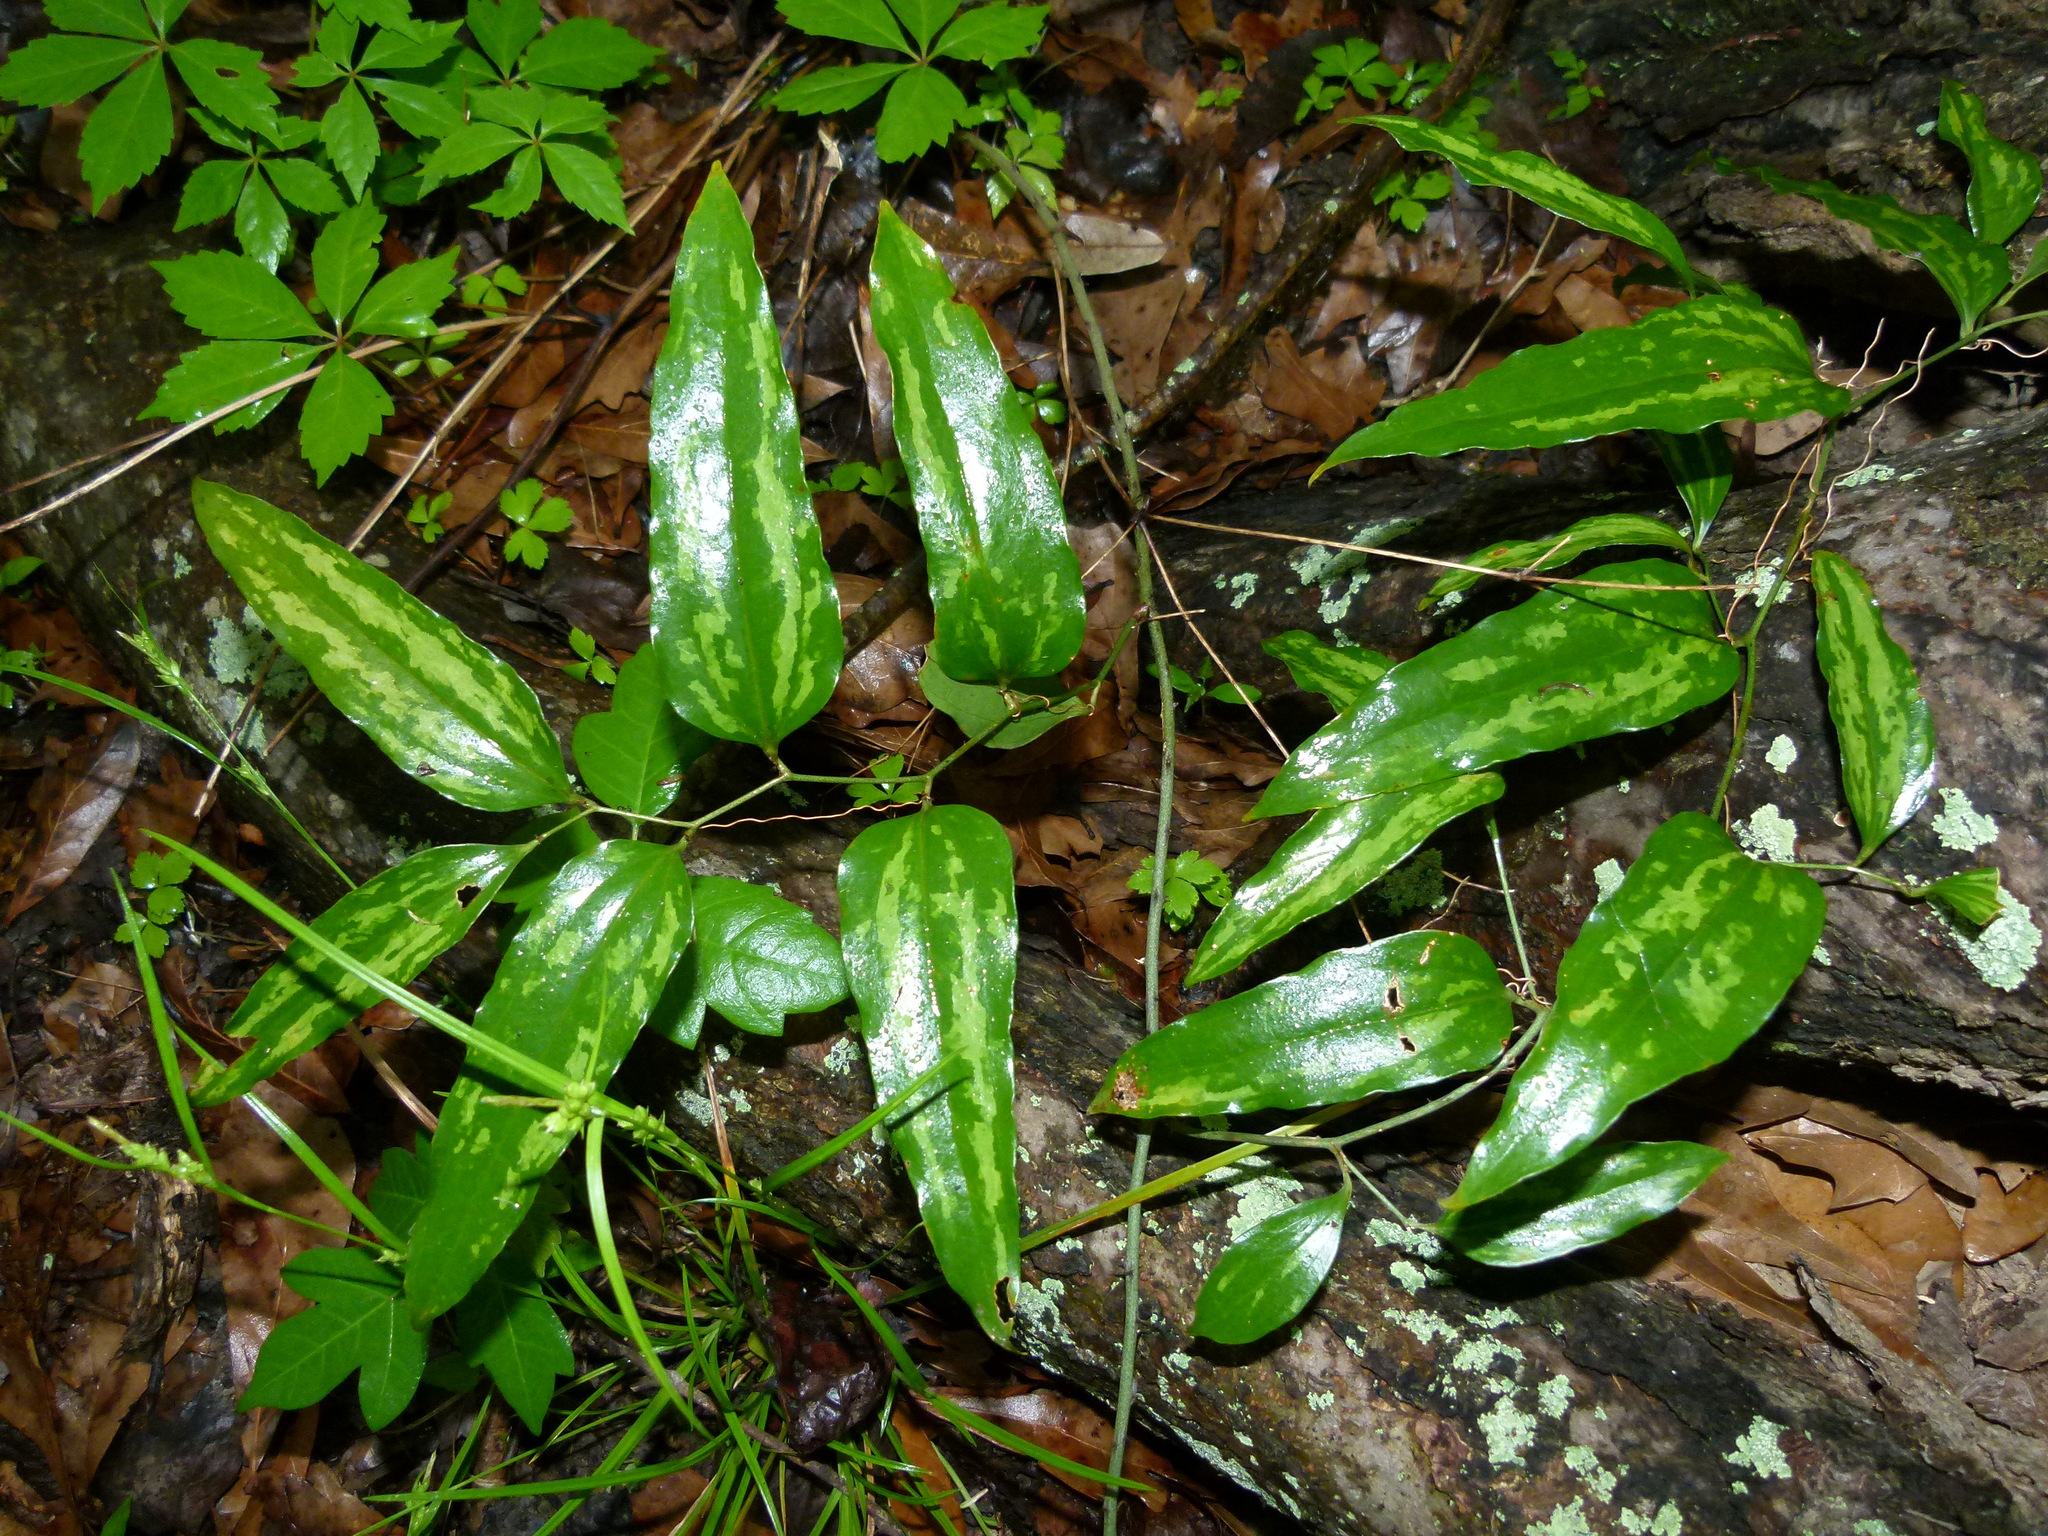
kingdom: Plantae
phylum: Tracheophyta
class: Liliopsida
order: Liliales
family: Smilacaceae
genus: Smilax
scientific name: Smilax maritima
